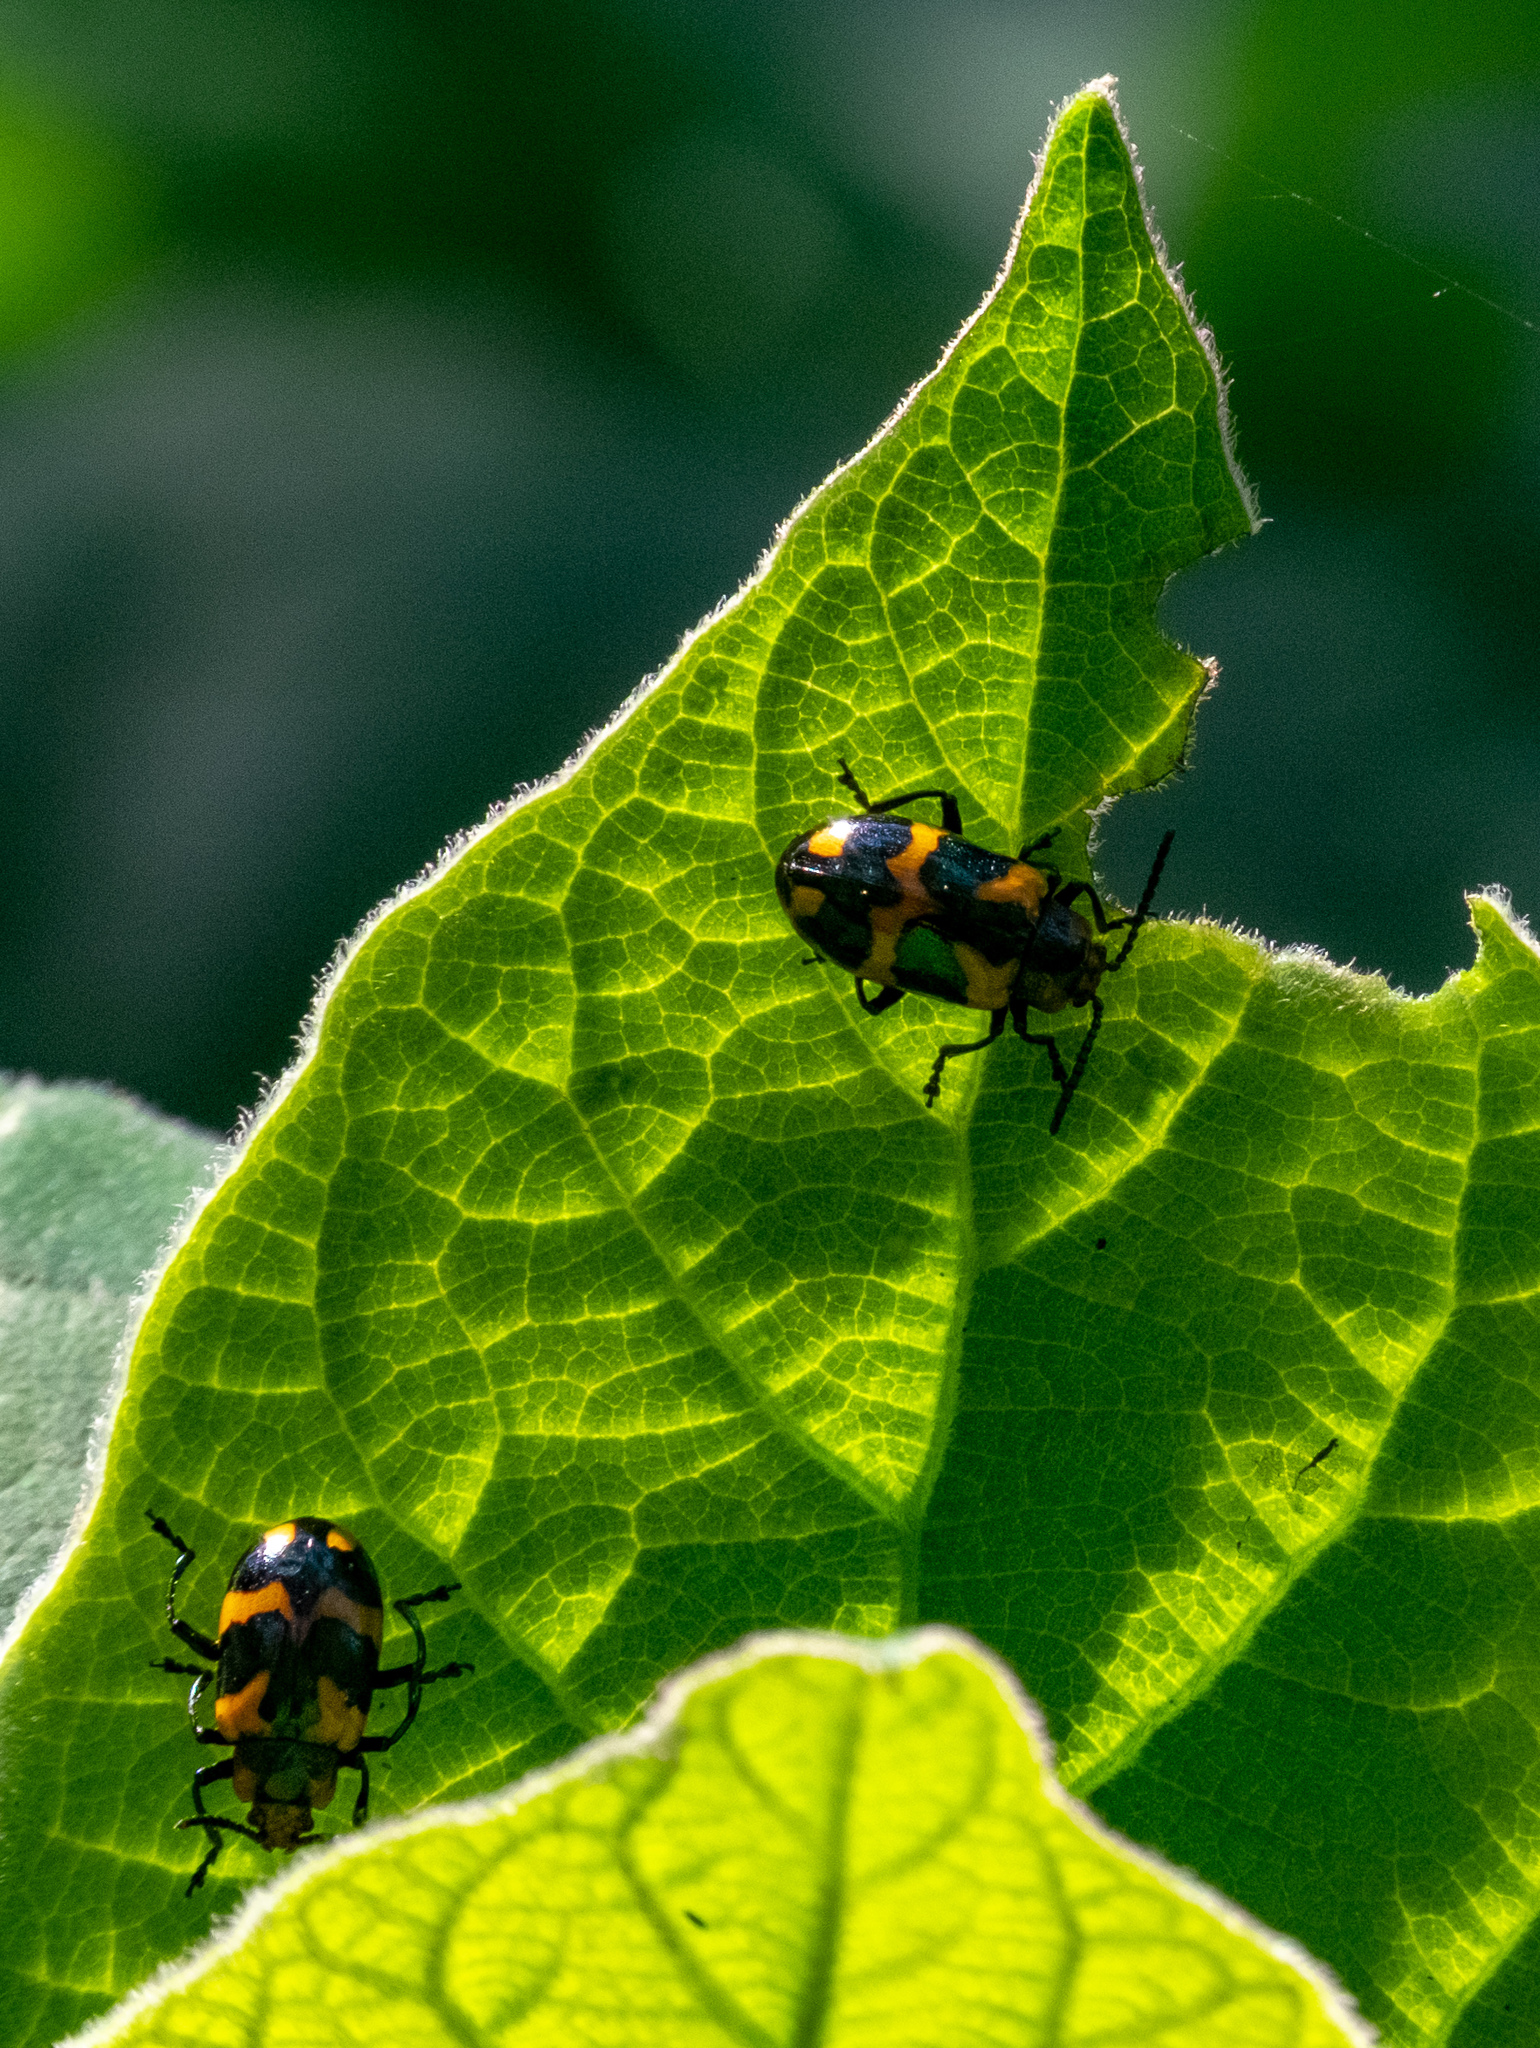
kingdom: Animalia
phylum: Arthropoda
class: Insecta
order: Coleoptera
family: Chrysomelidae
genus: Phyllocharis
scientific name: Phyllocharis
